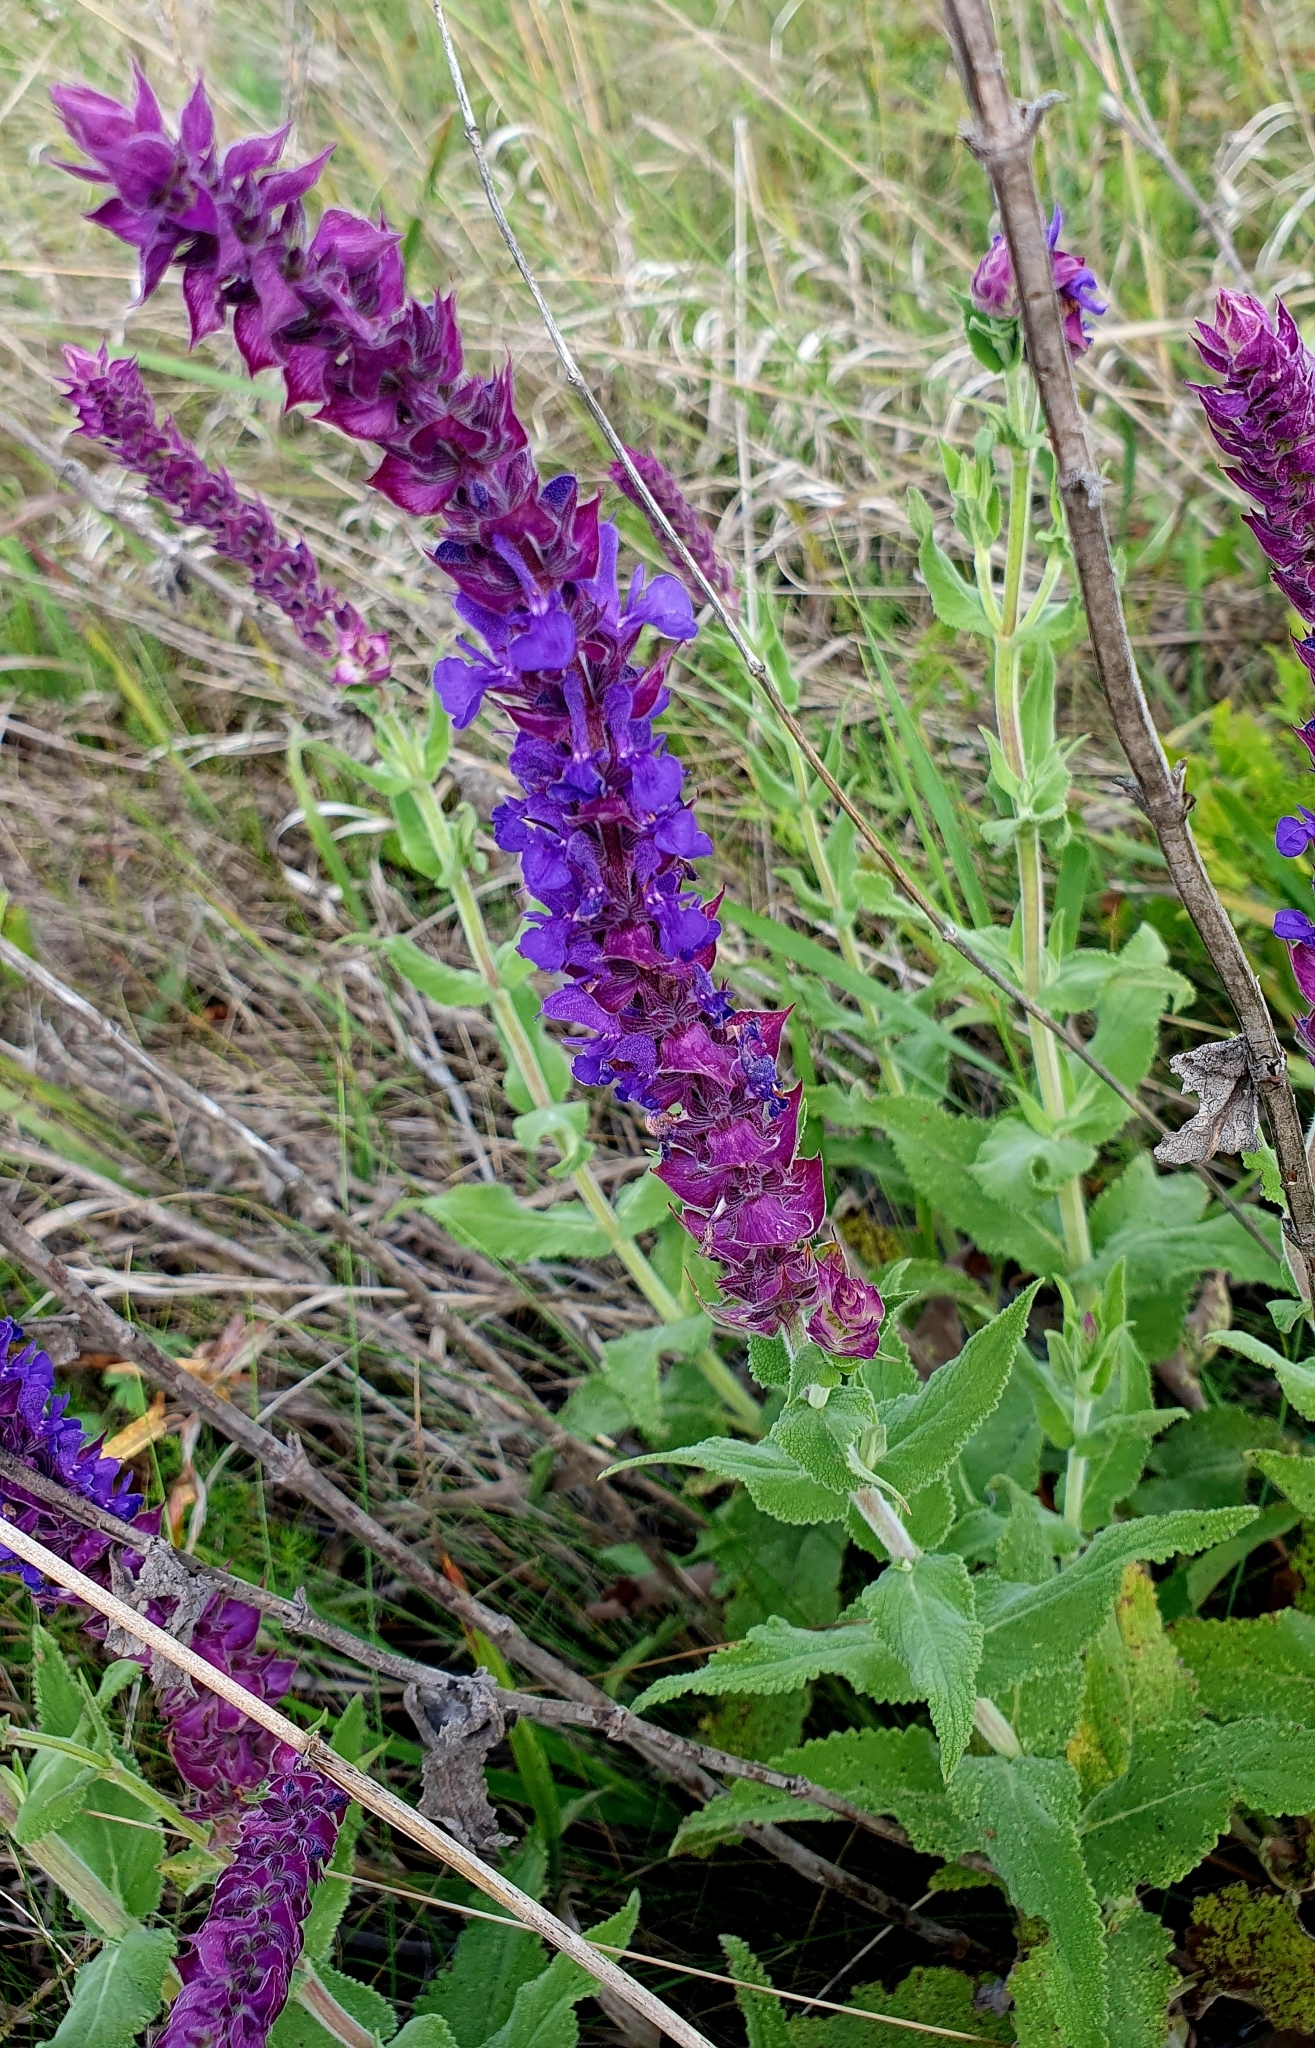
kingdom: Plantae
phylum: Tracheophyta
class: Magnoliopsida
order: Lamiales
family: Lamiaceae
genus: Salvia
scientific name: Salvia nemorosa
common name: Balkan clary
